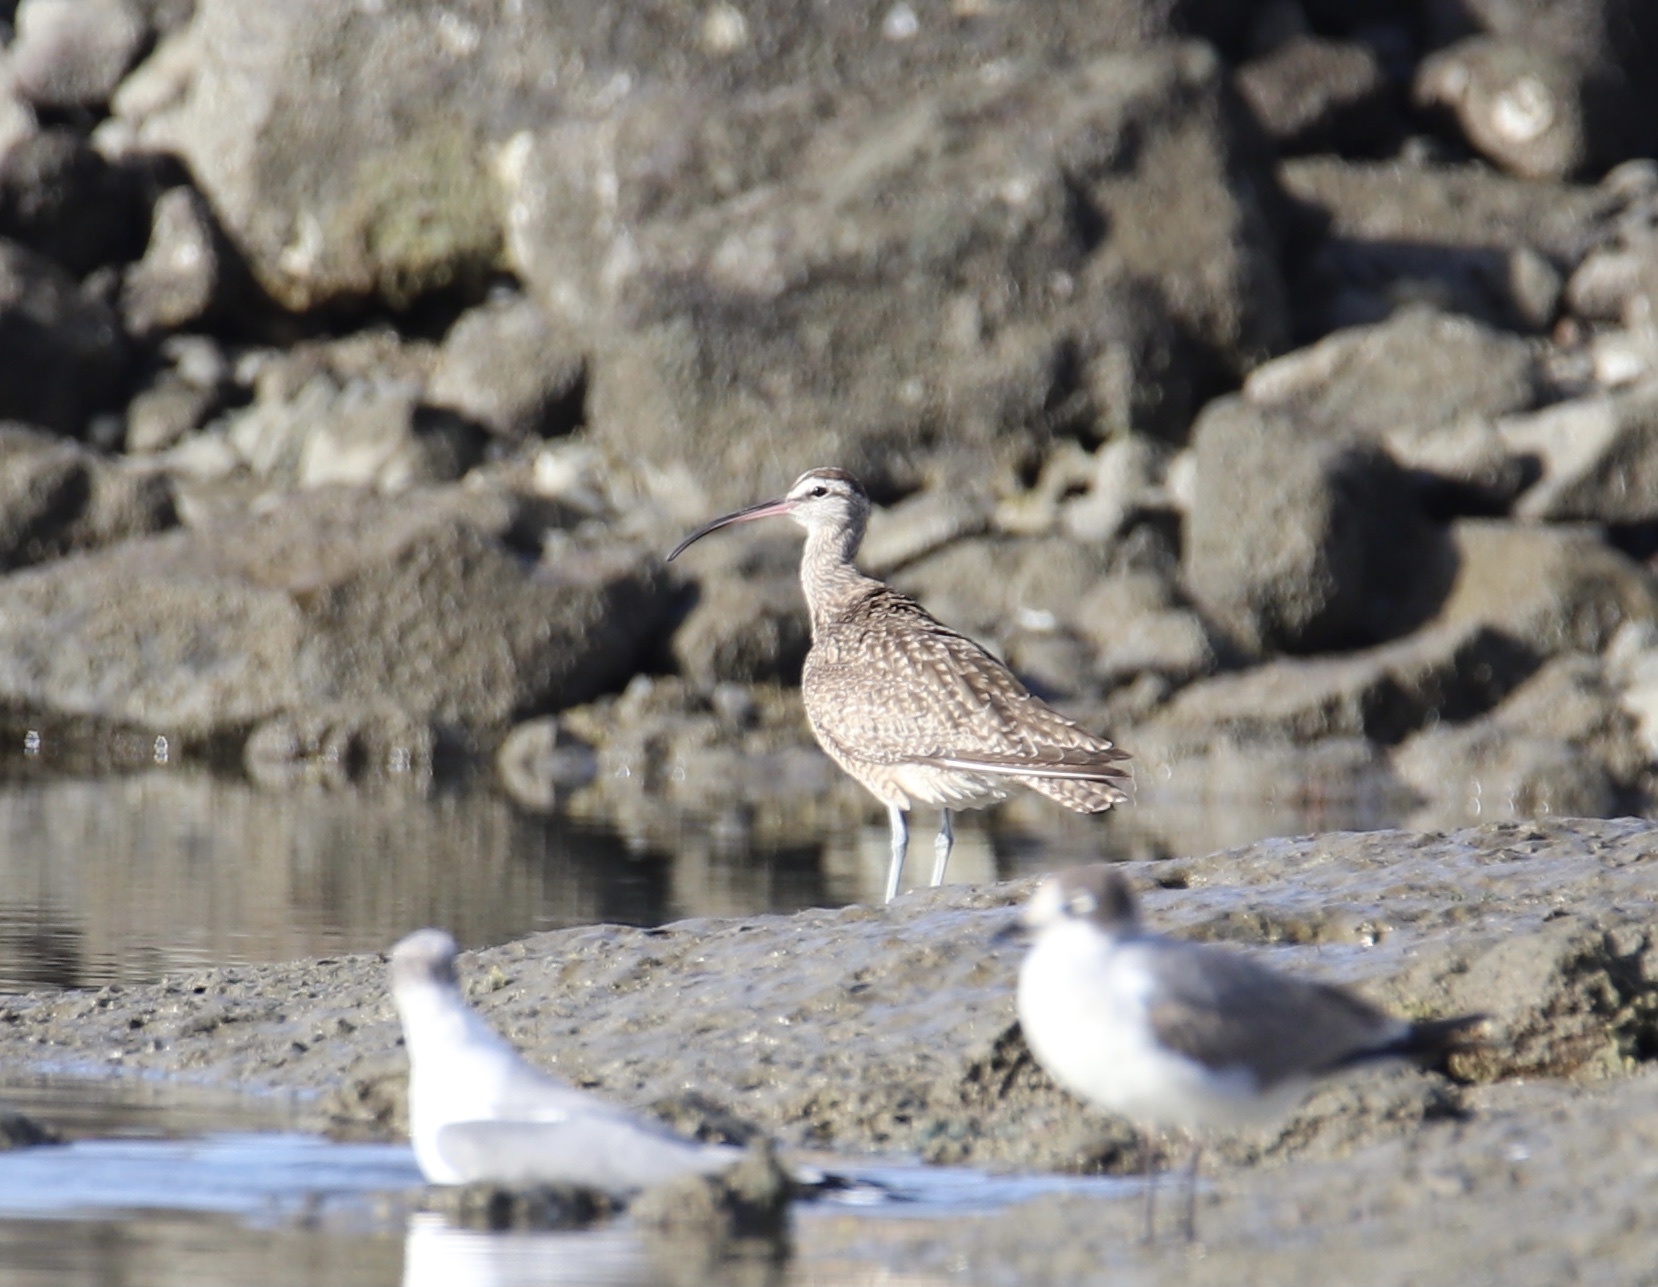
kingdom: Animalia
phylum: Chordata
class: Aves
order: Charadriiformes
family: Scolopacidae
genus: Numenius
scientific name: Numenius phaeopus
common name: Whimbrel
